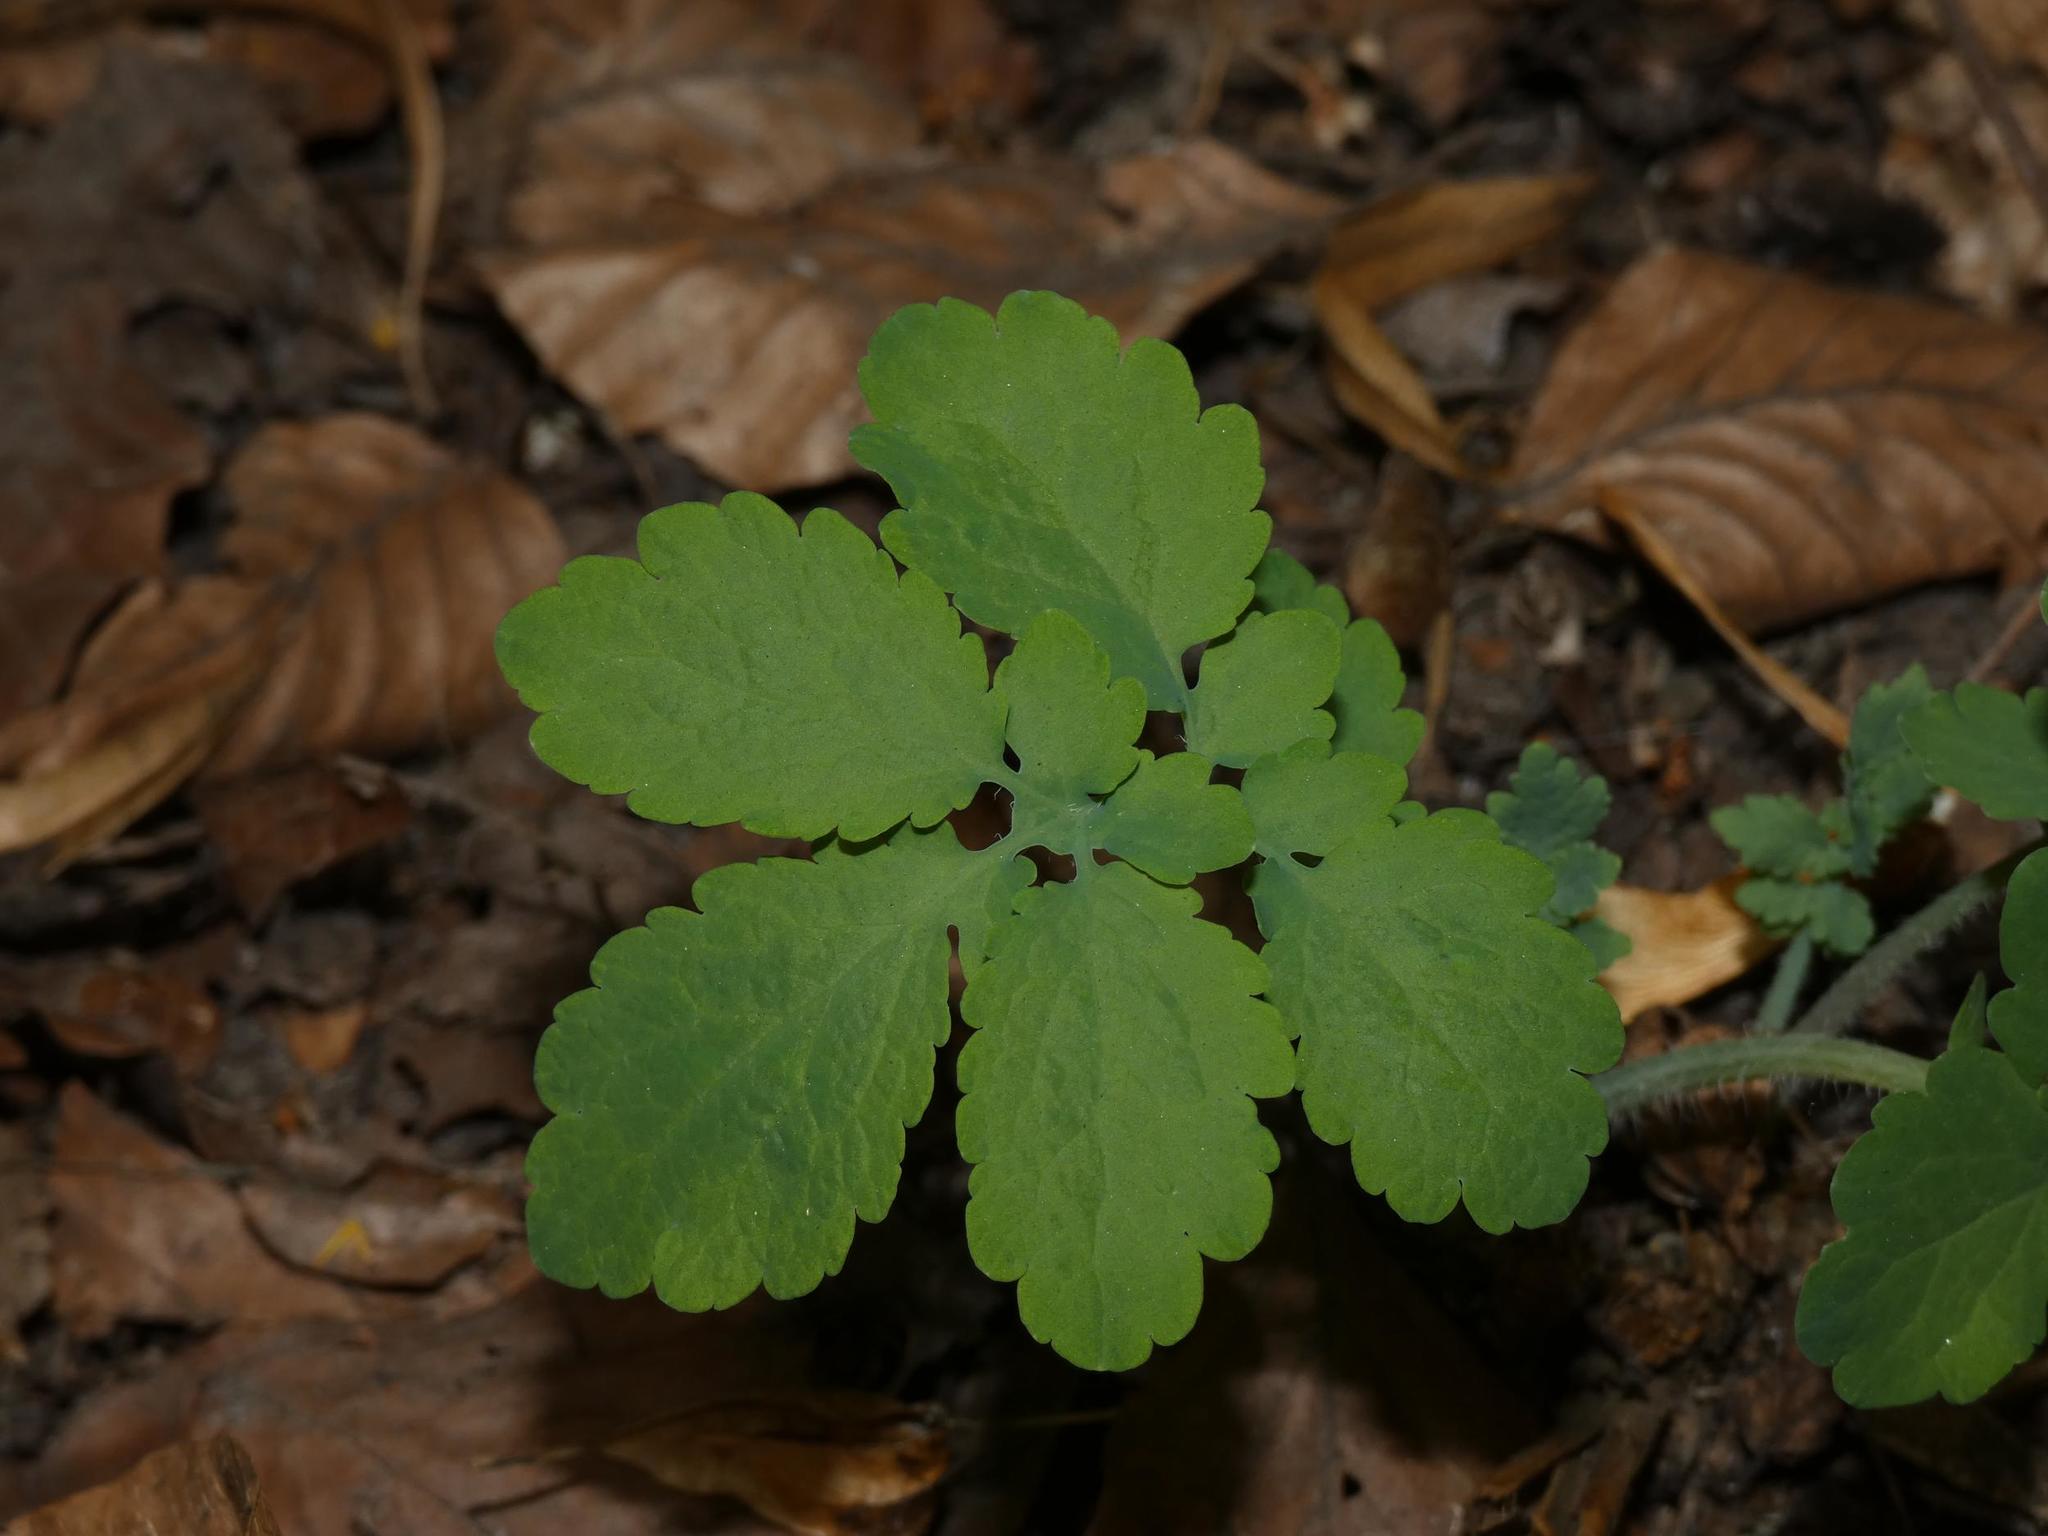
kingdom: Plantae
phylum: Tracheophyta
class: Magnoliopsida
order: Ranunculales
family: Papaveraceae
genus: Chelidonium
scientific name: Chelidonium majus
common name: Greater celandine
